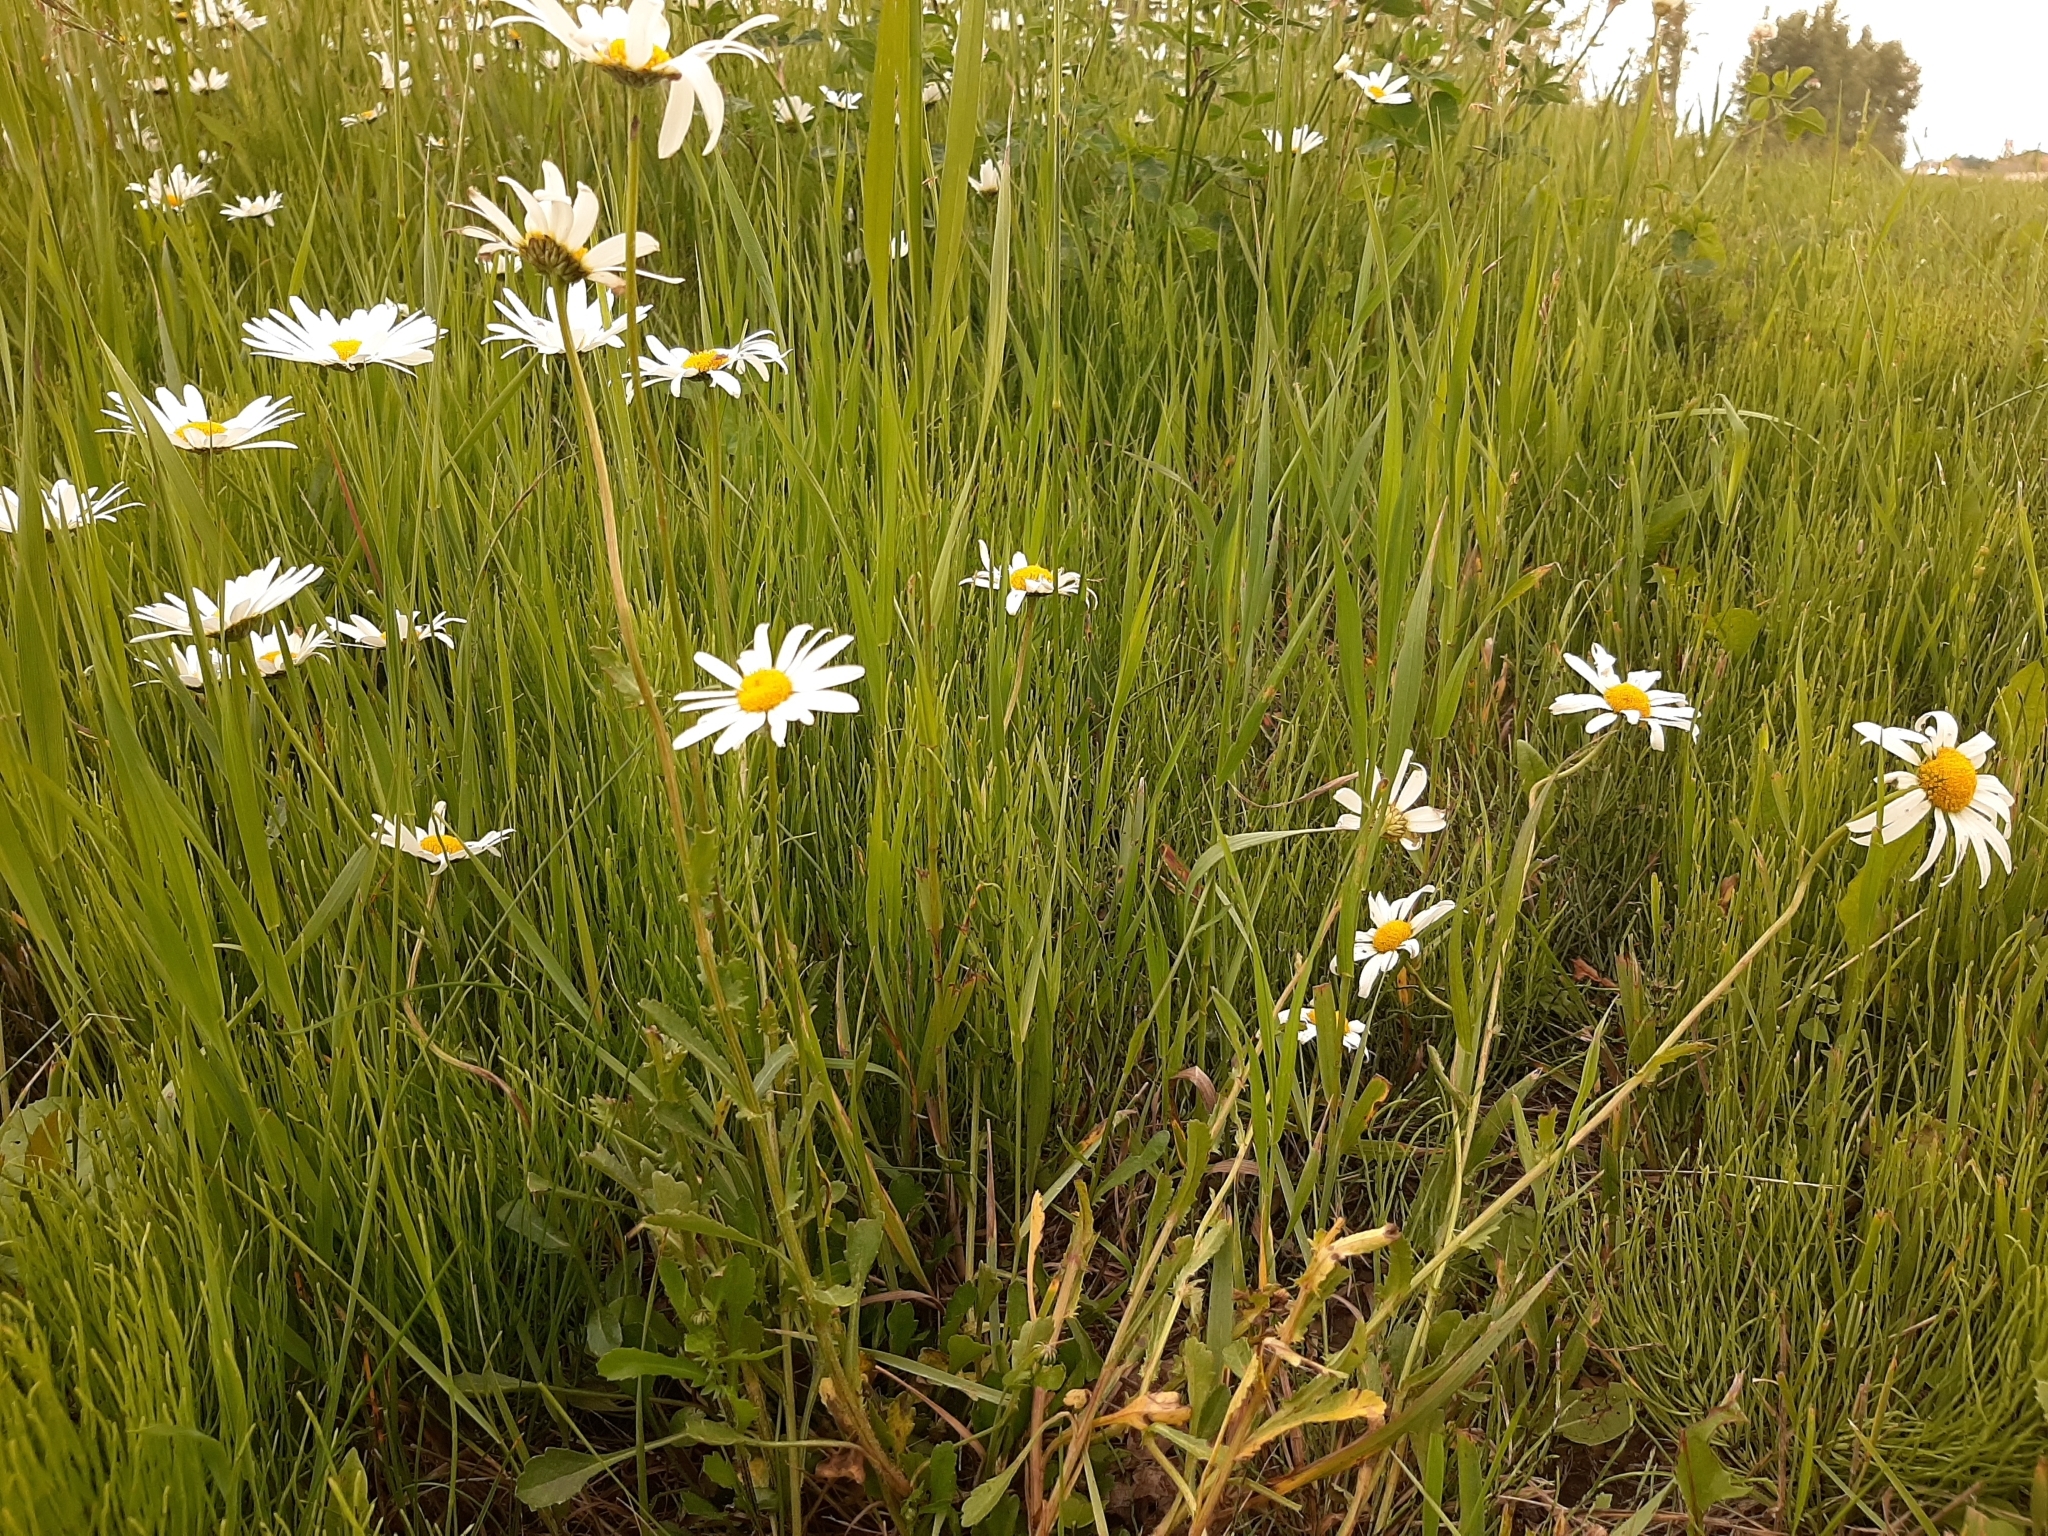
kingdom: Plantae
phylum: Tracheophyta
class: Magnoliopsida
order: Asterales
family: Asteraceae
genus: Leucanthemum
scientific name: Leucanthemum vulgare
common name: Oxeye daisy
